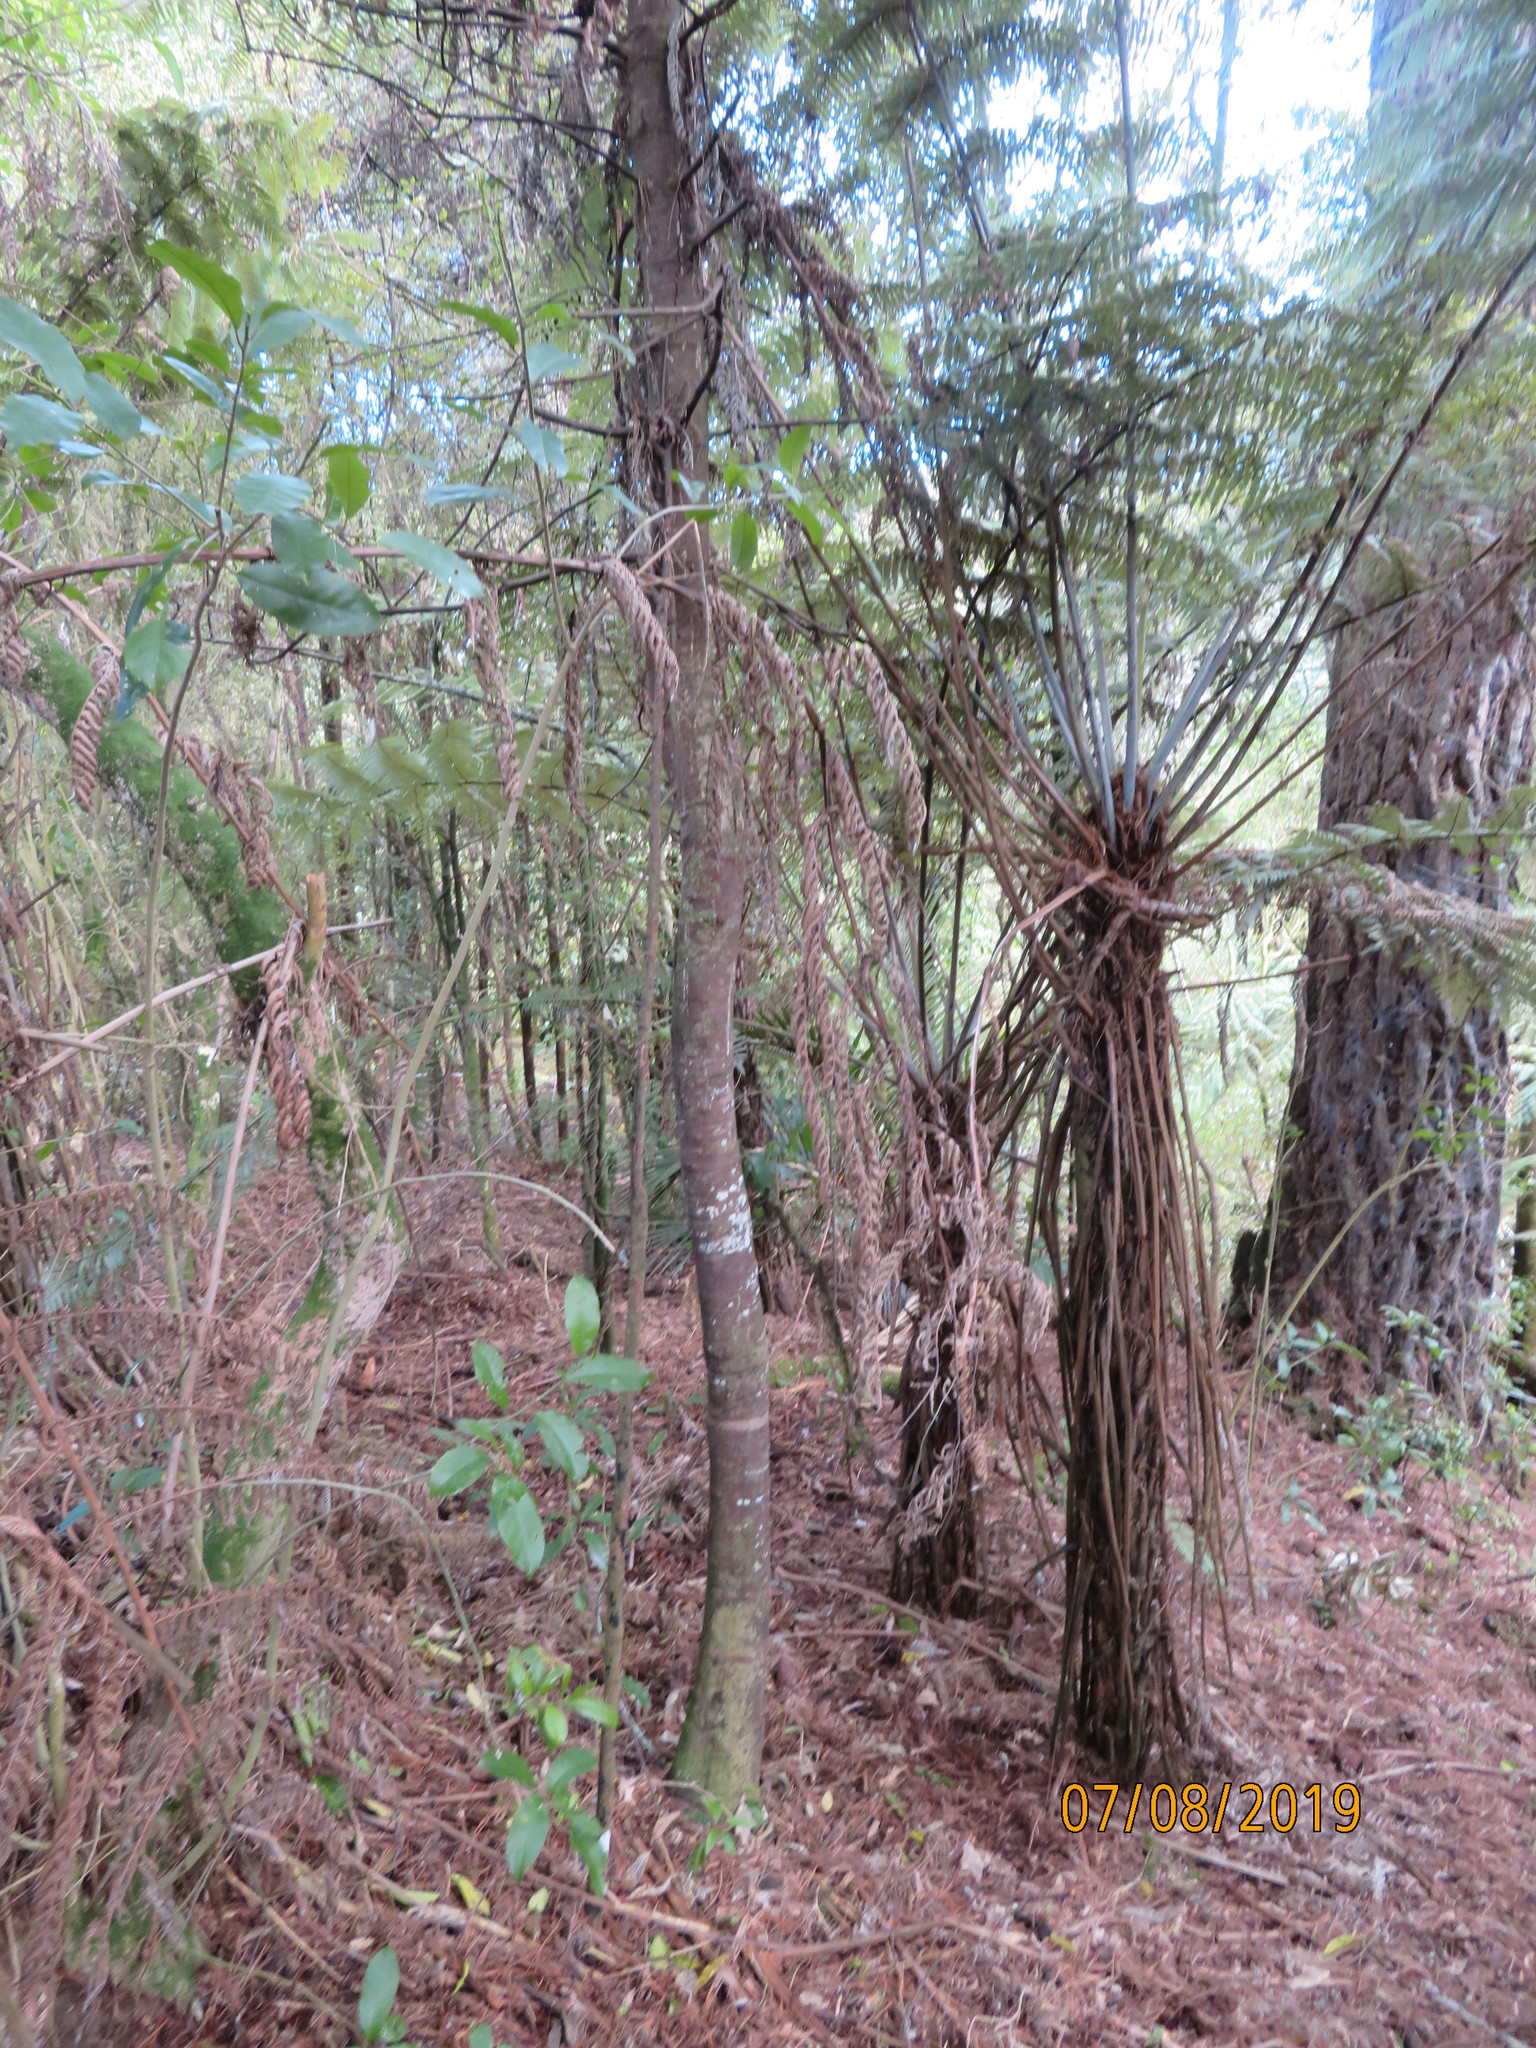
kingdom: Plantae
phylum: Tracheophyta
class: Pinopsida
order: Pinales
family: Phyllocladaceae
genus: Phyllocladus
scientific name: Phyllocladus trichomanoides
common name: Celery pine
